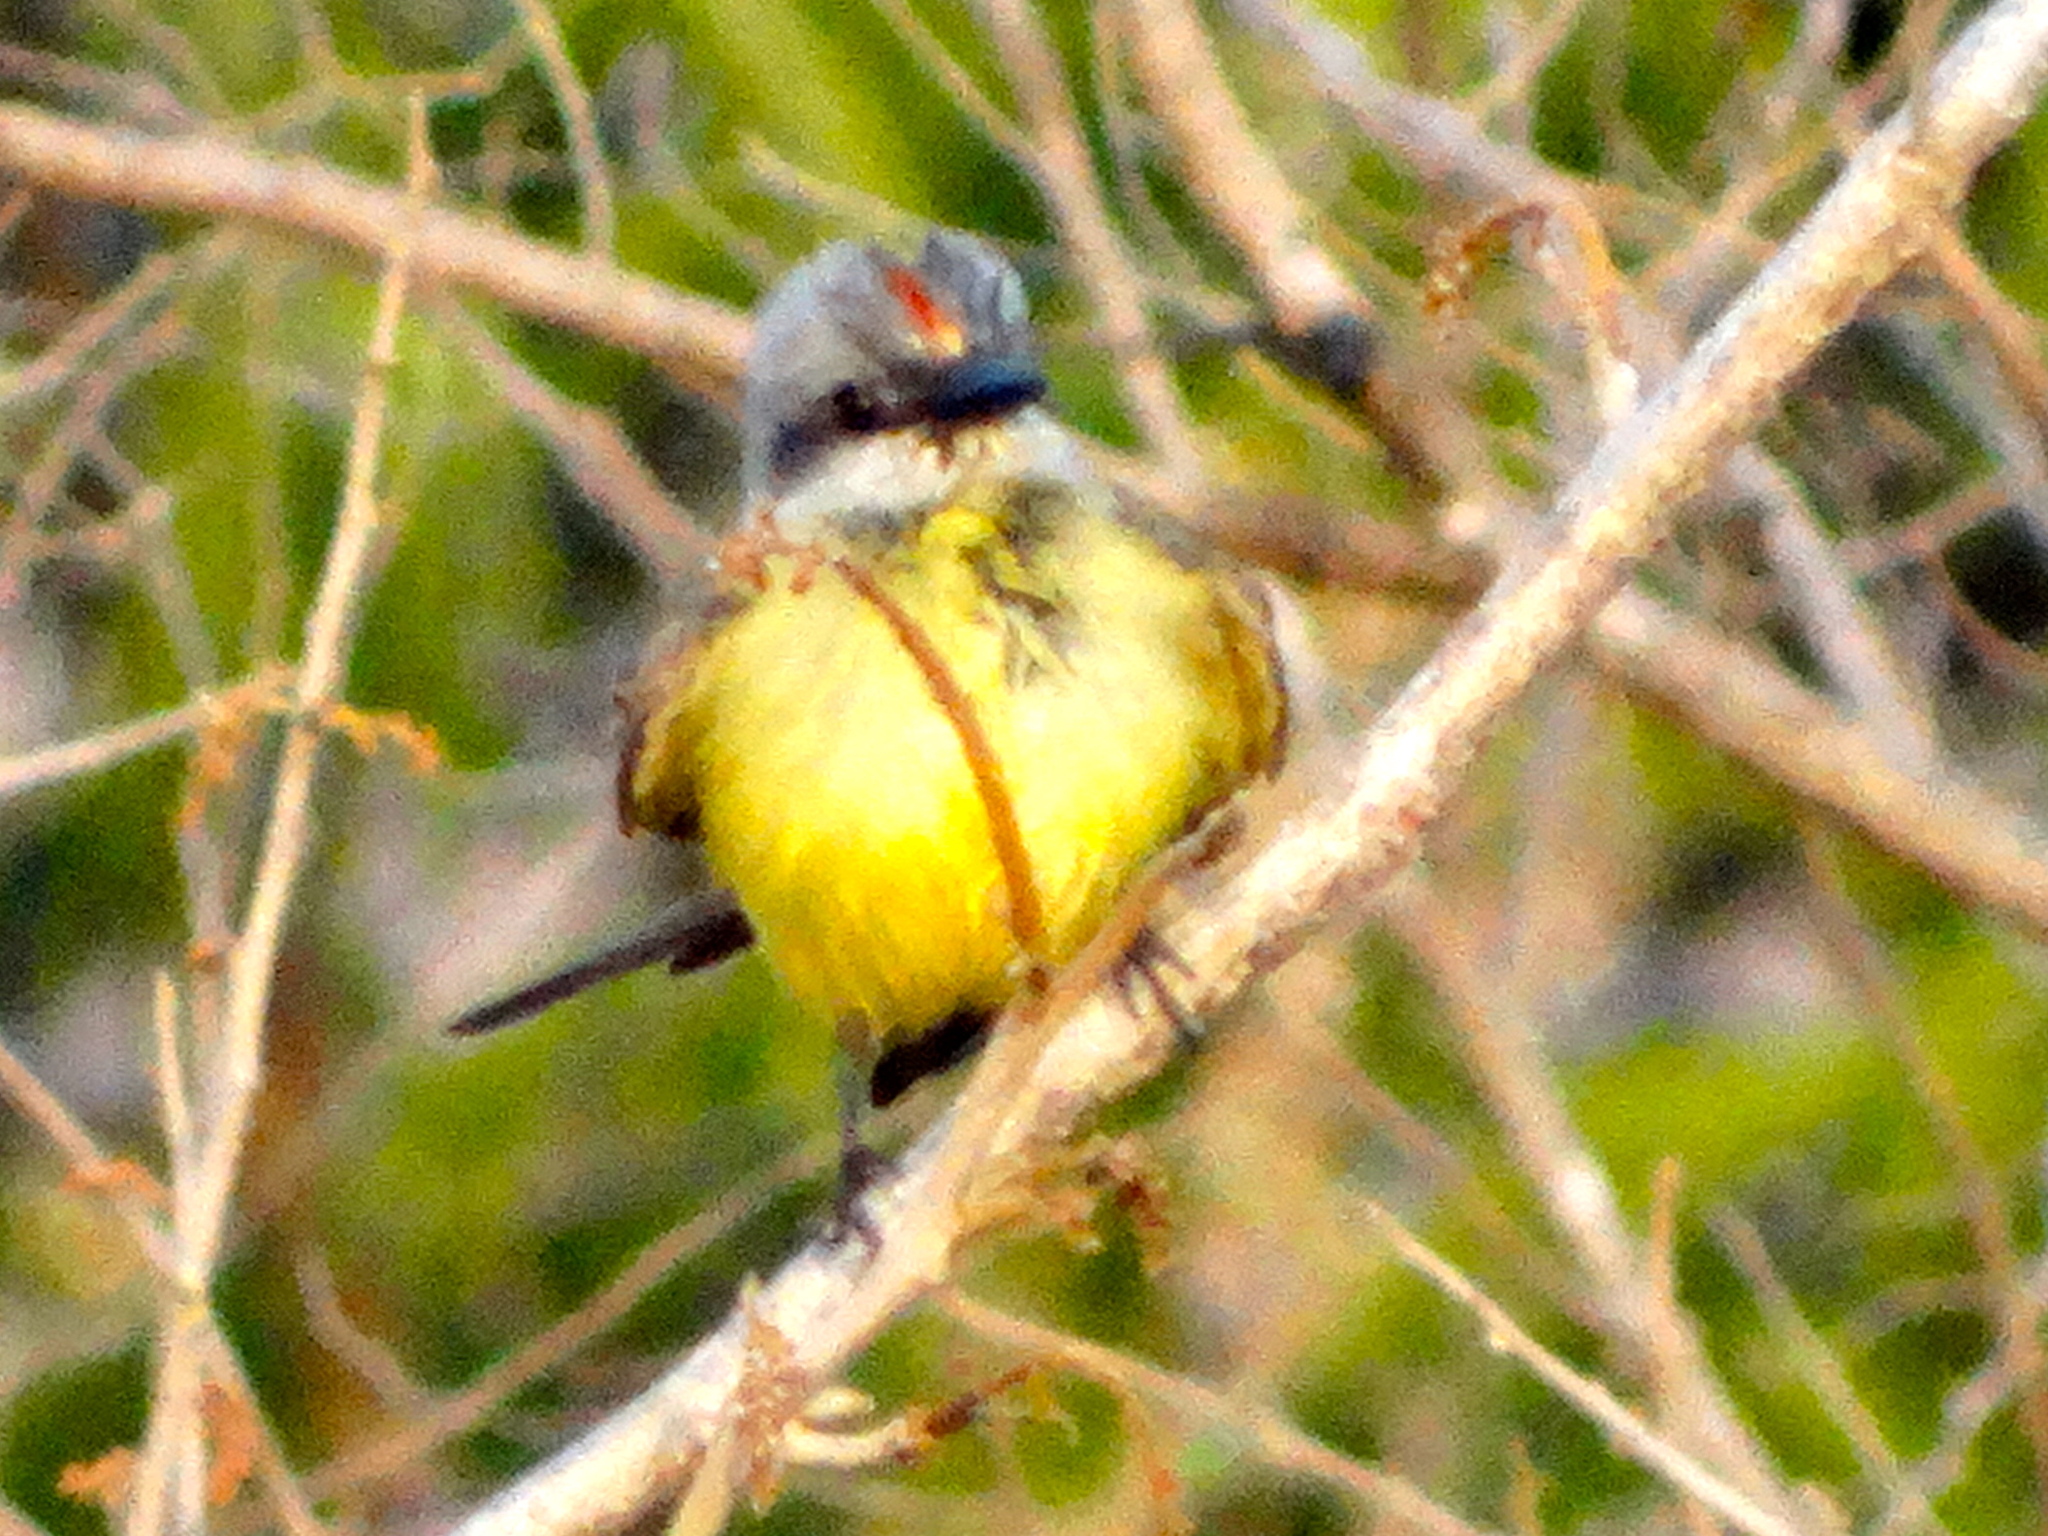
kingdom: Animalia
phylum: Chordata
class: Aves
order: Passeriformes
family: Tyrannidae
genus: Tyrannus
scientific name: Tyrannus melancholicus
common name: Tropical kingbird
